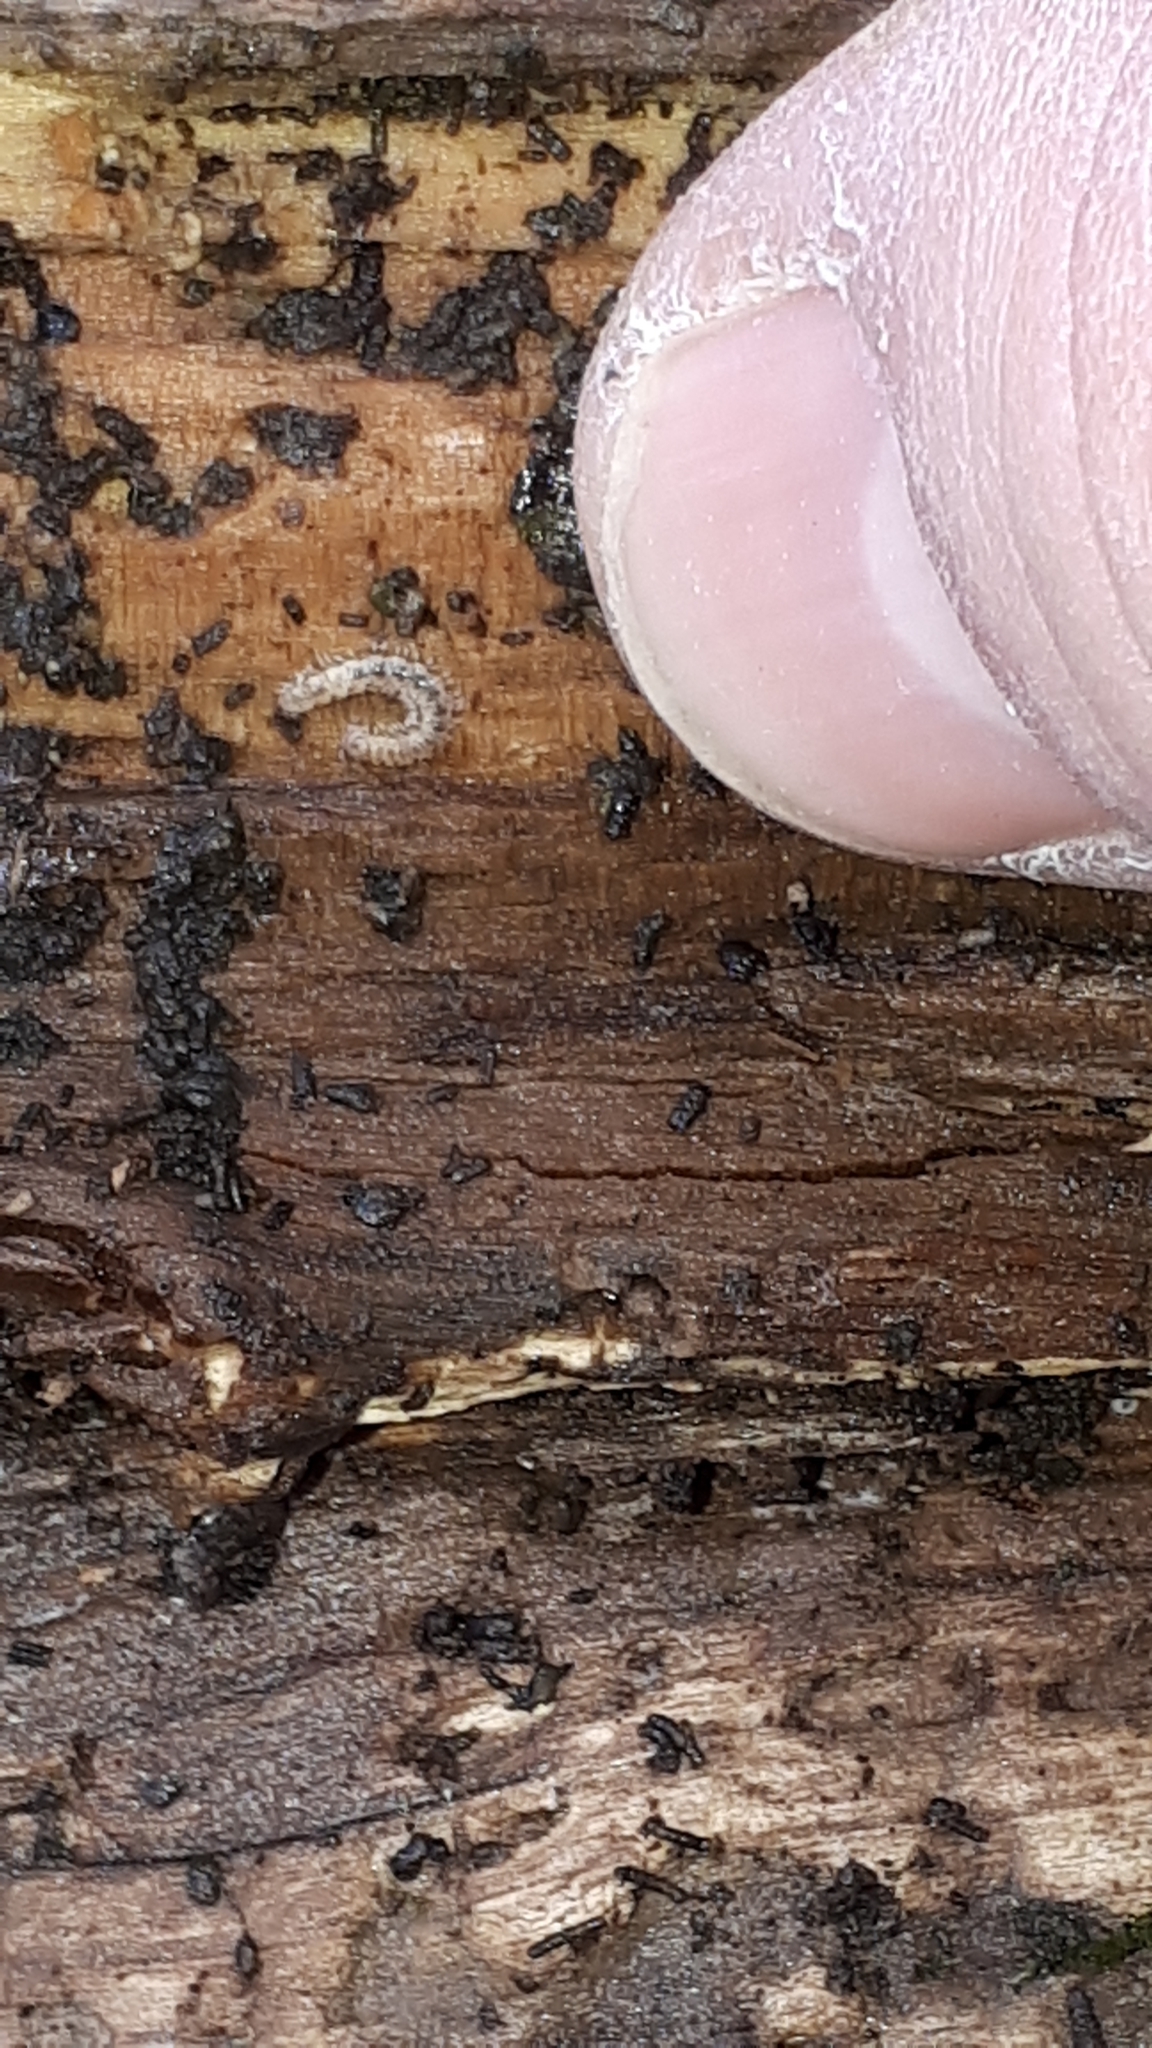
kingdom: Animalia
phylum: Arthropoda
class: Diplopoda
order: Polydesmida
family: Polydesmidae
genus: Brachydesmus
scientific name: Brachydesmus superus
